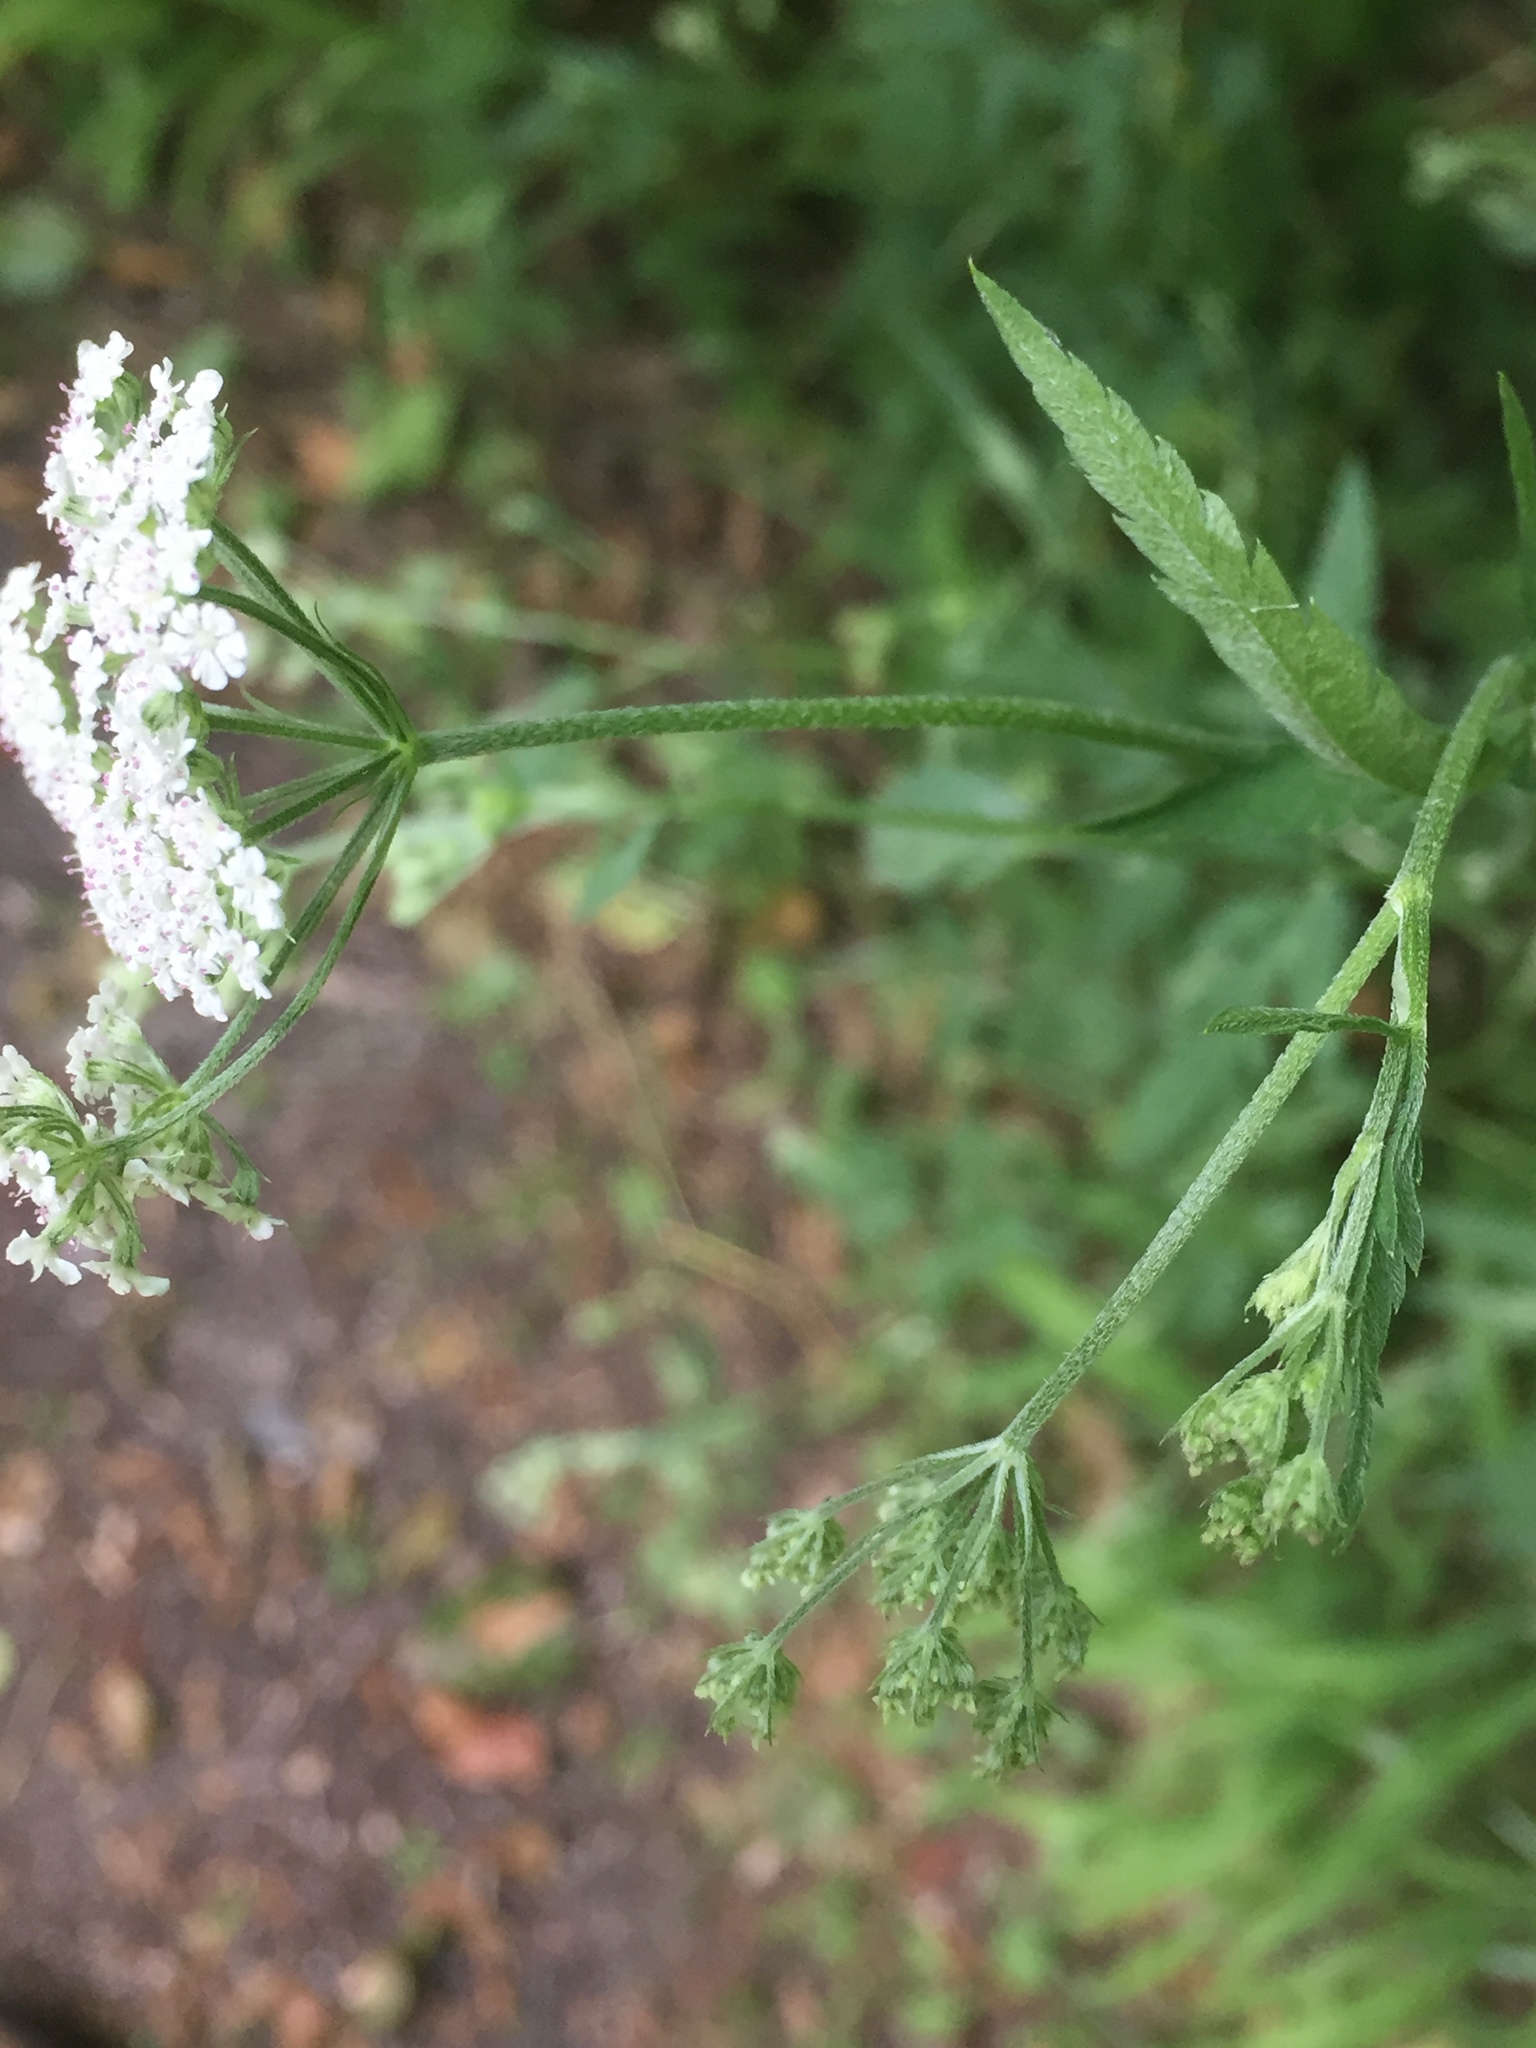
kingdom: Plantae
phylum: Tracheophyta
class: Magnoliopsida
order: Apiales
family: Apiaceae
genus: Torilis
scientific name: Torilis japonica
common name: Upright hedge-parsley
